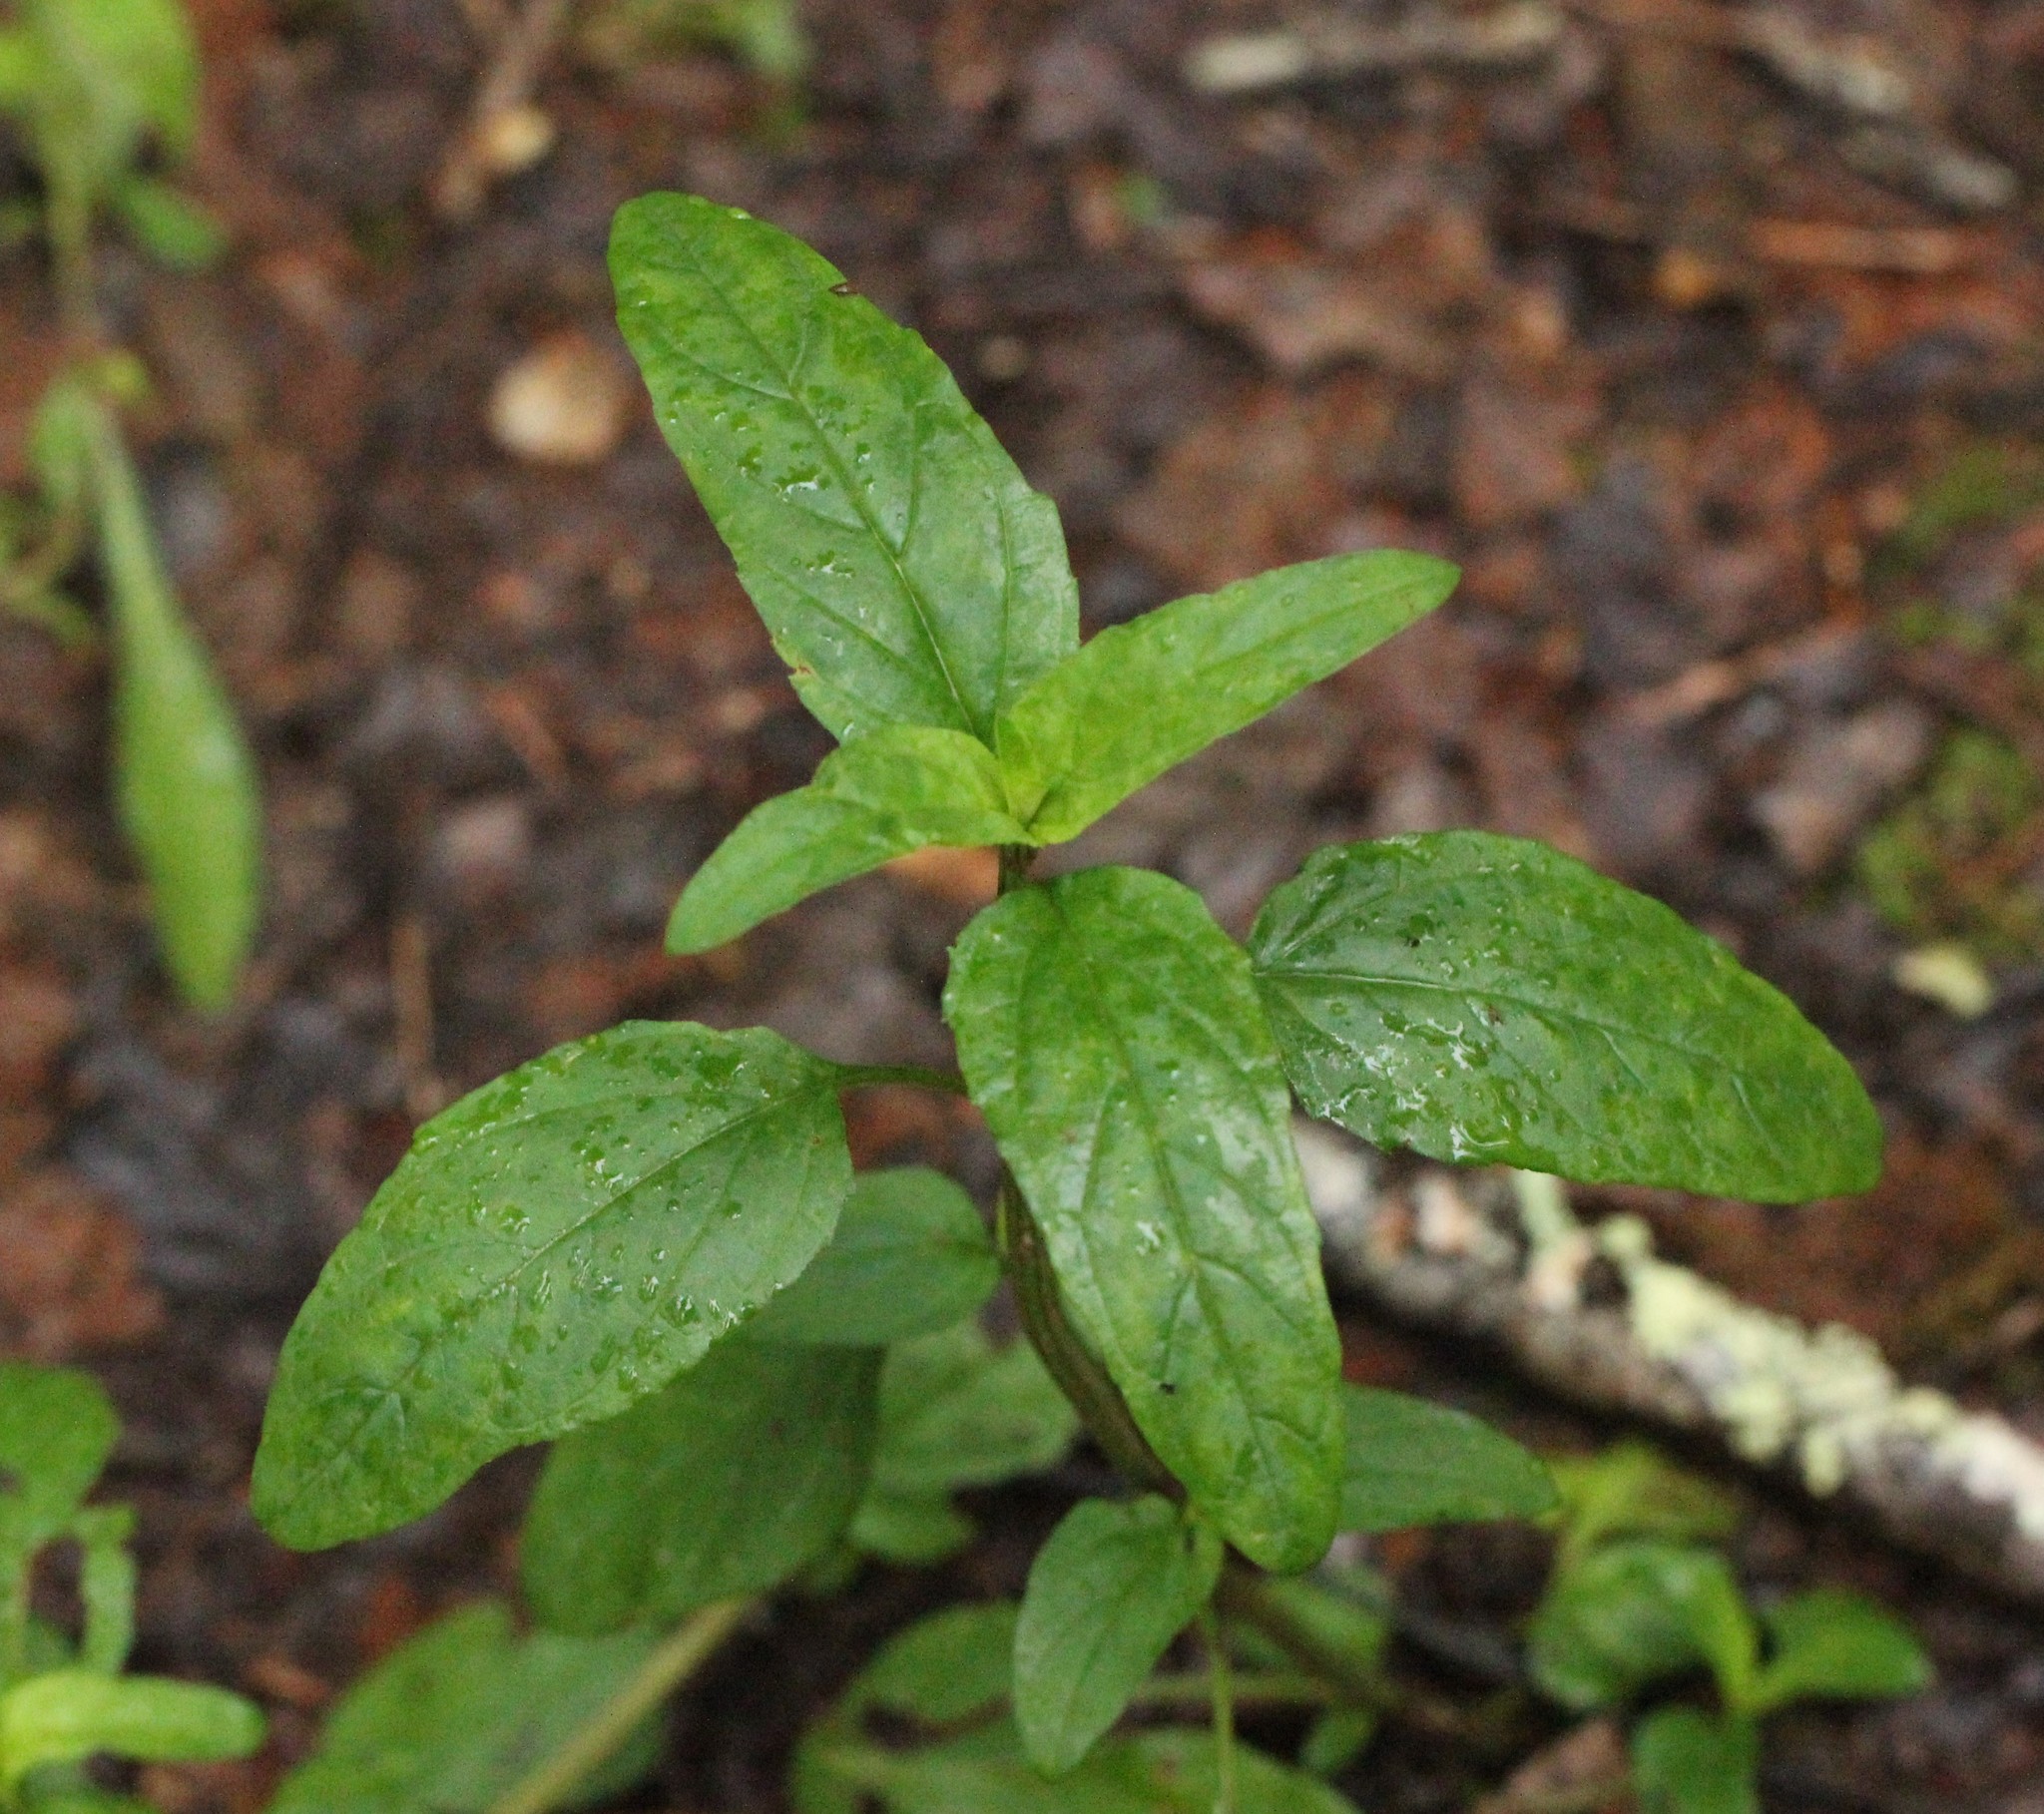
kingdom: Plantae
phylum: Tracheophyta
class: Magnoliopsida
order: Lamiales
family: Lamiaceae
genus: Prunella
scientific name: Prunella vulgaris
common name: Heal-all
